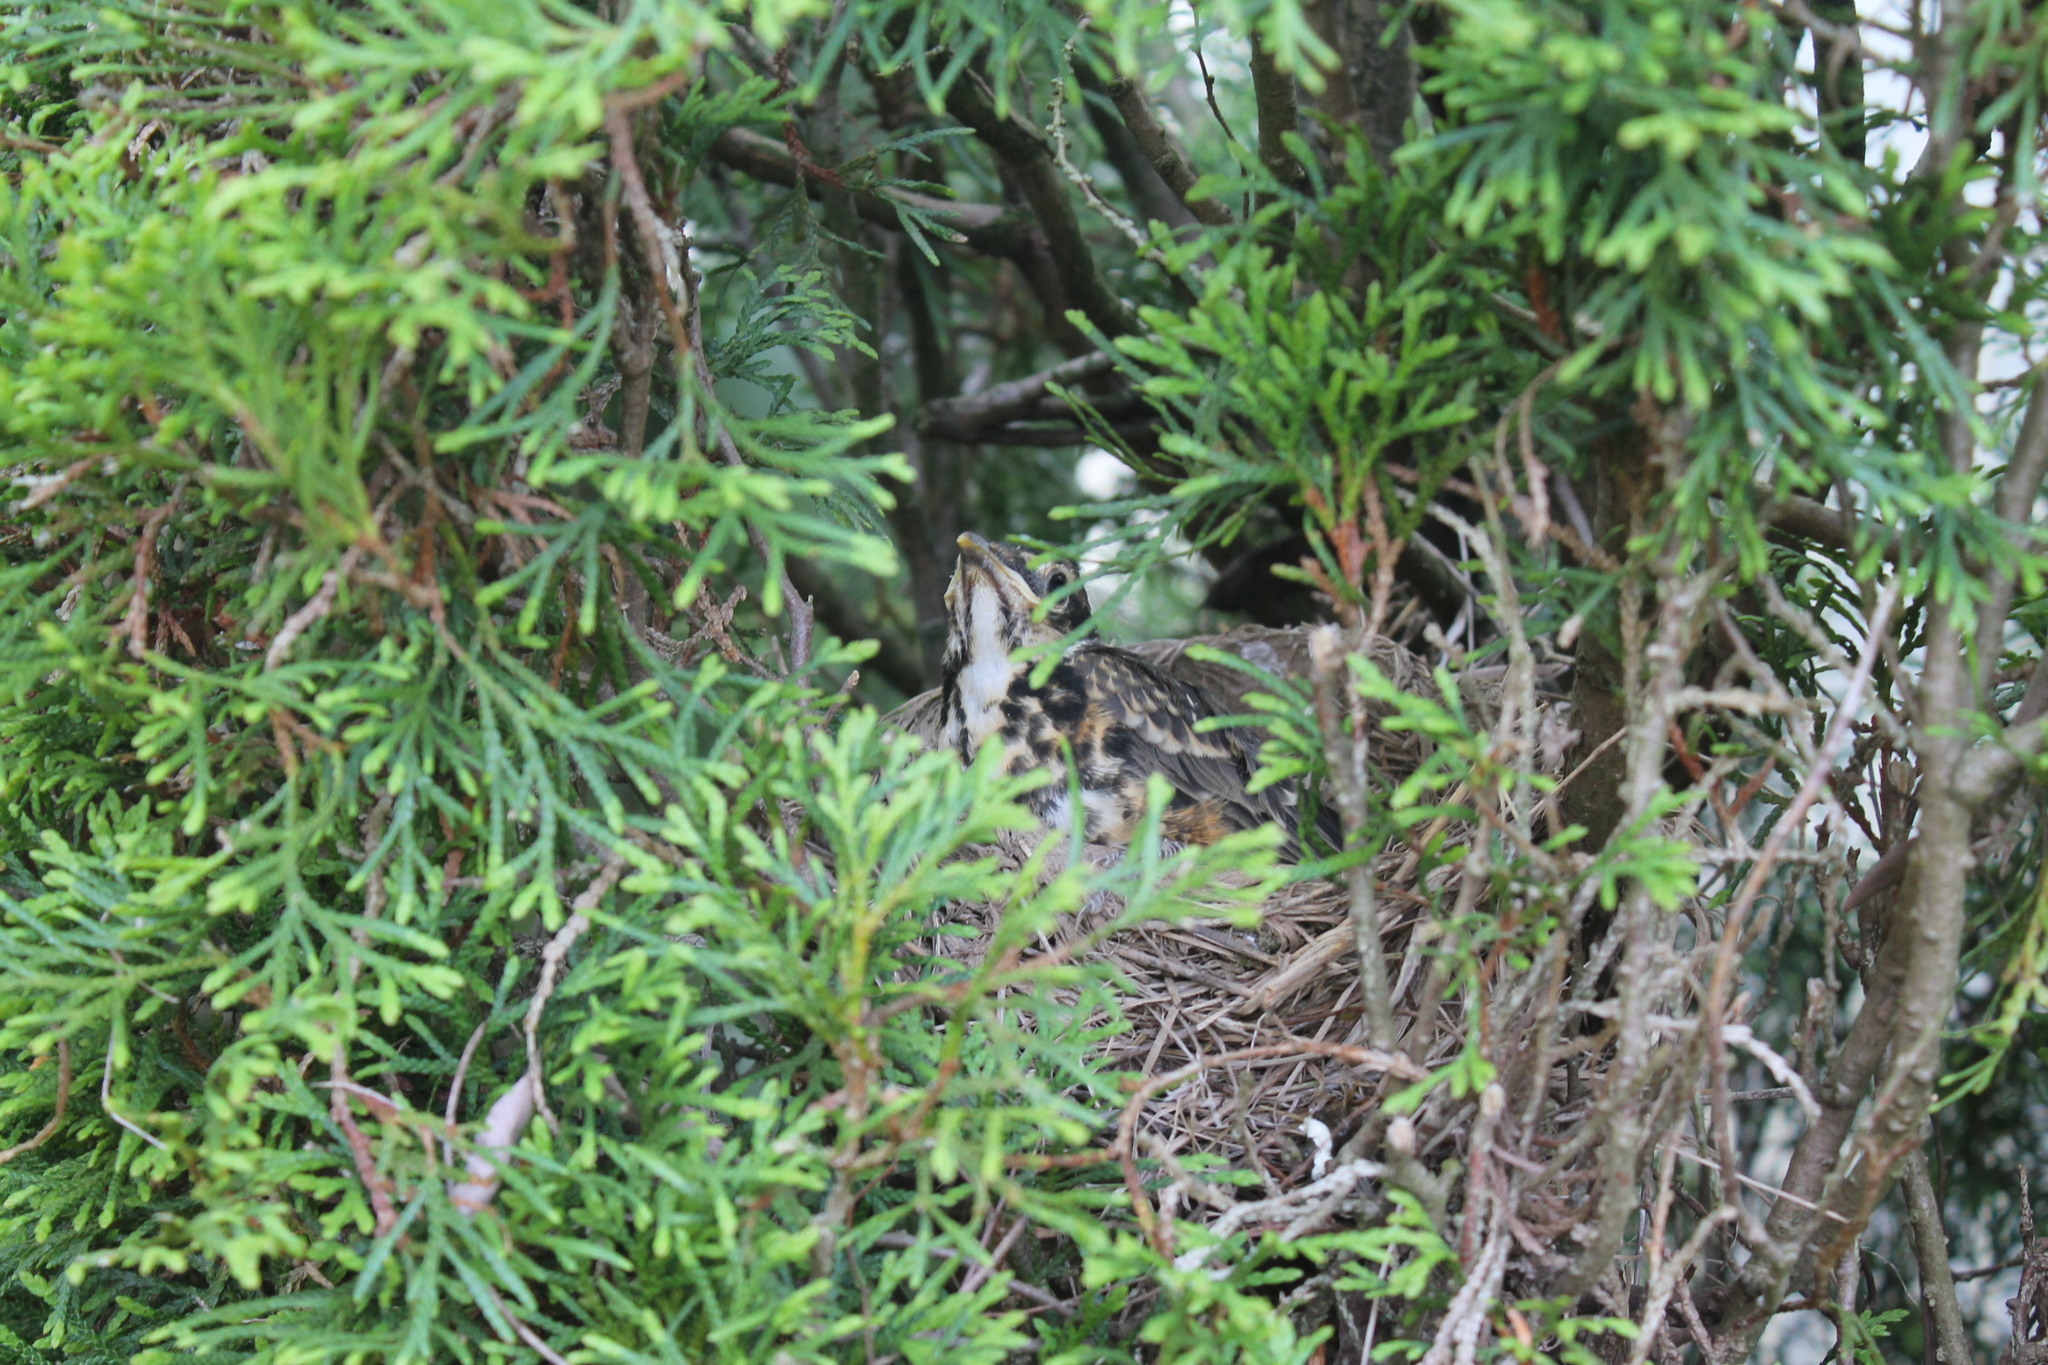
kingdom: Animalia
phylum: Chordata
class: Aves
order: Passeriformes
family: Turdidae
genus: Turdus
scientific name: Turdus migratorius
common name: American robin
